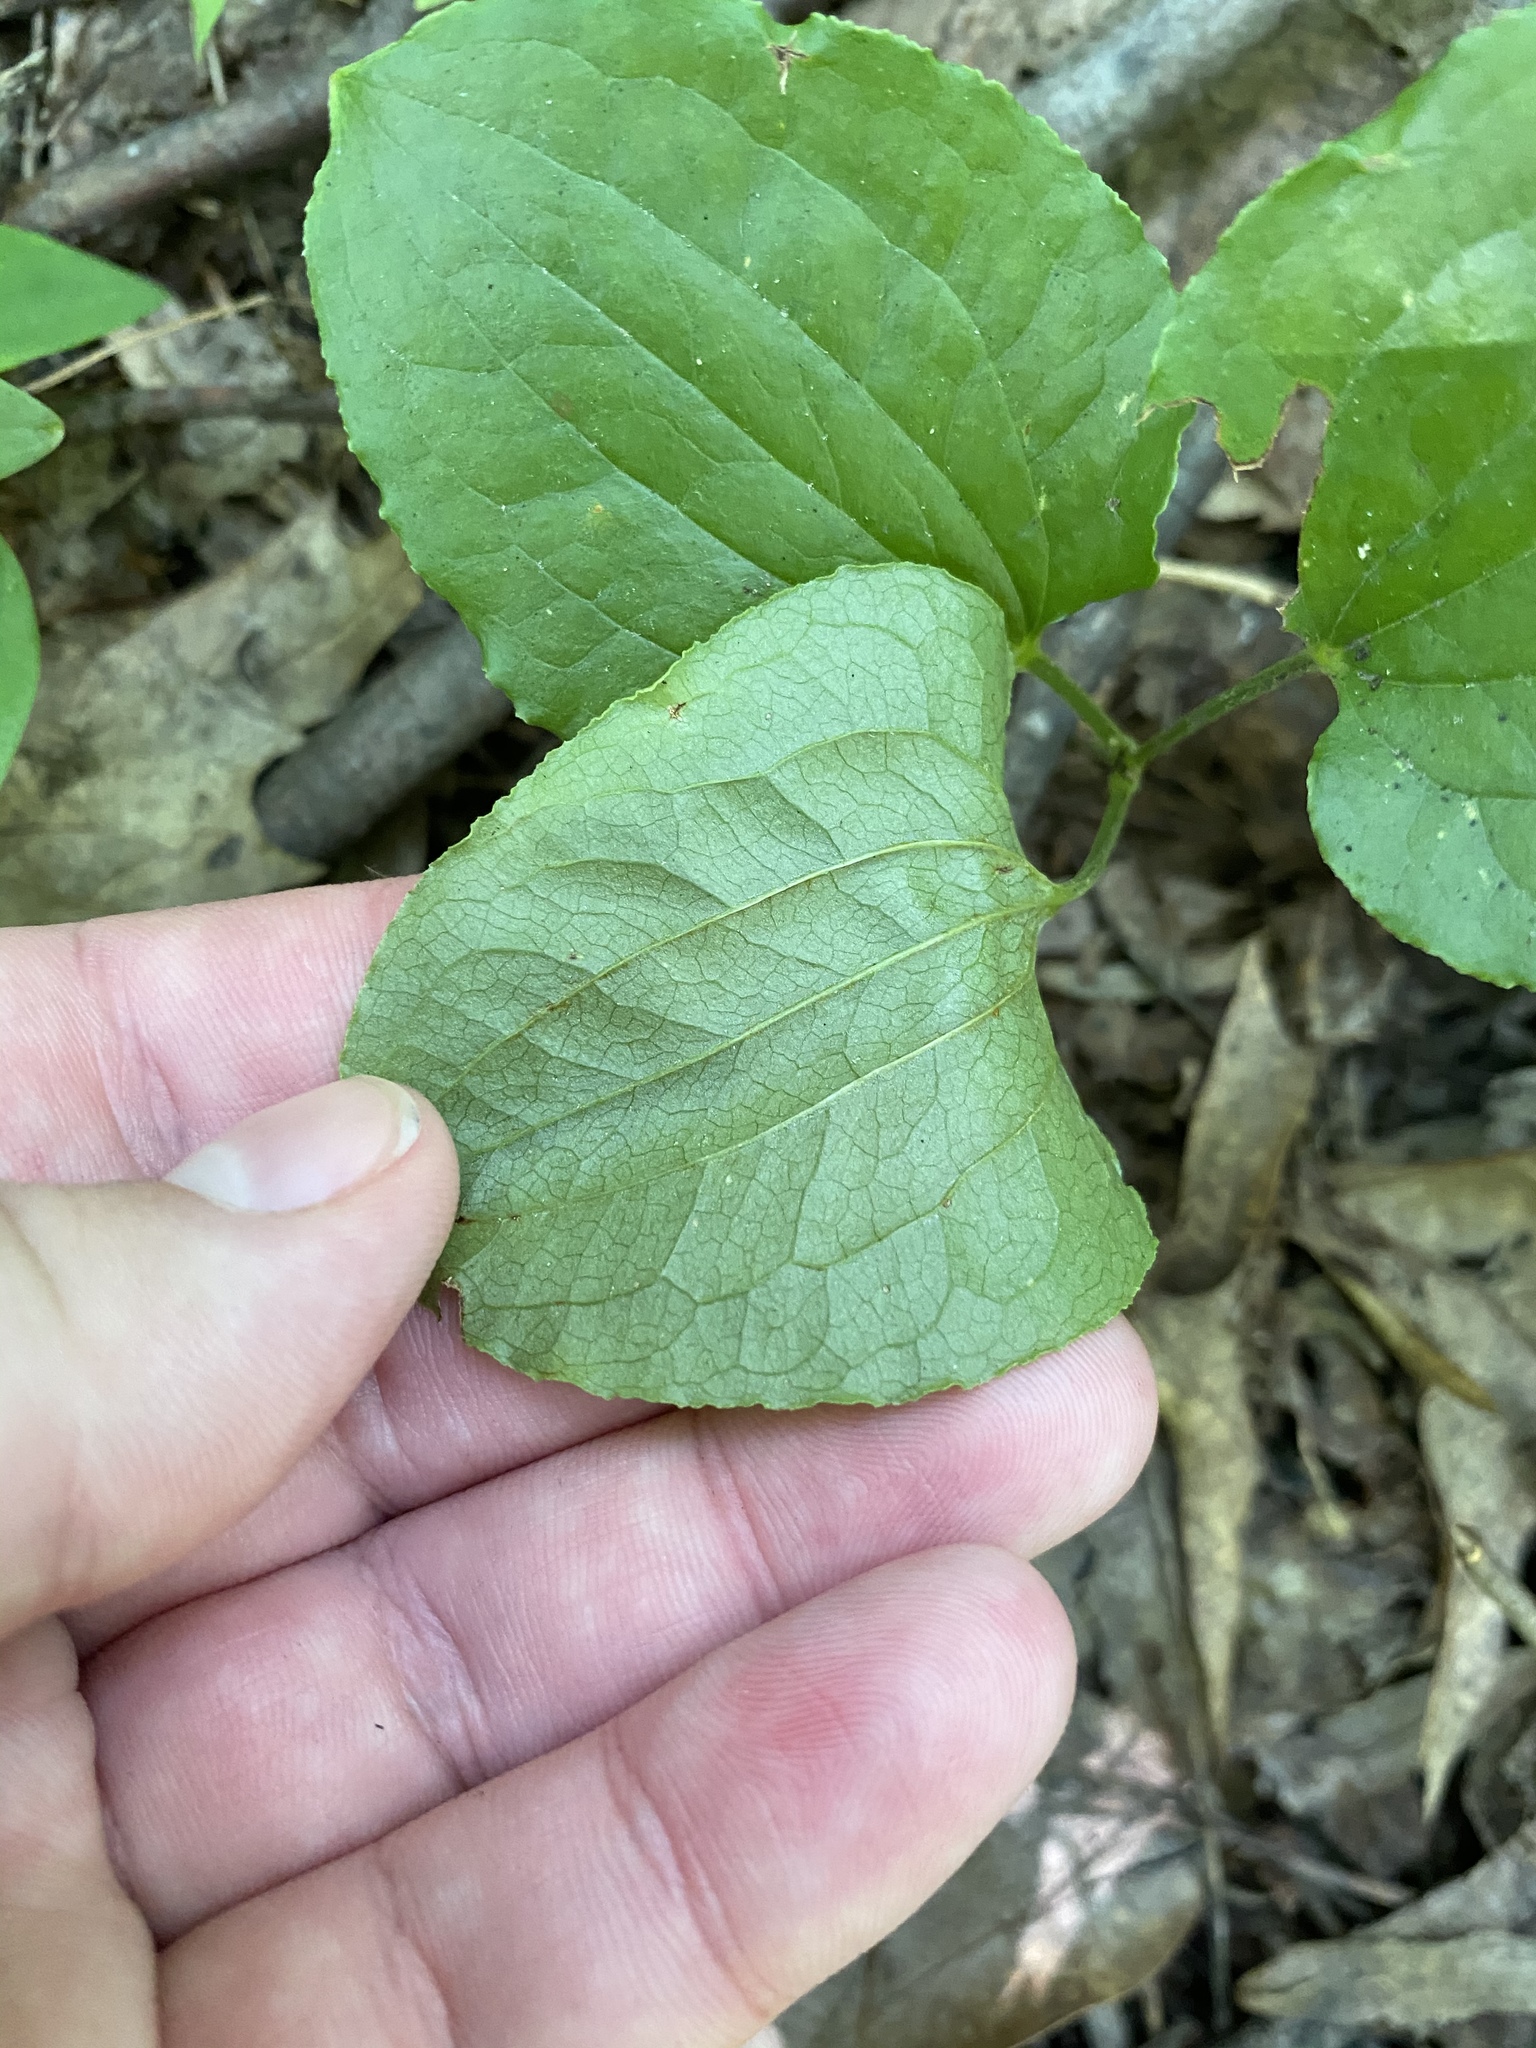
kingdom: Plantae
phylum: Tracheophyta
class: Liliopsida
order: Liliales
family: Smilacaceae
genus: Smilax
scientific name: Smilax pulverulenta
